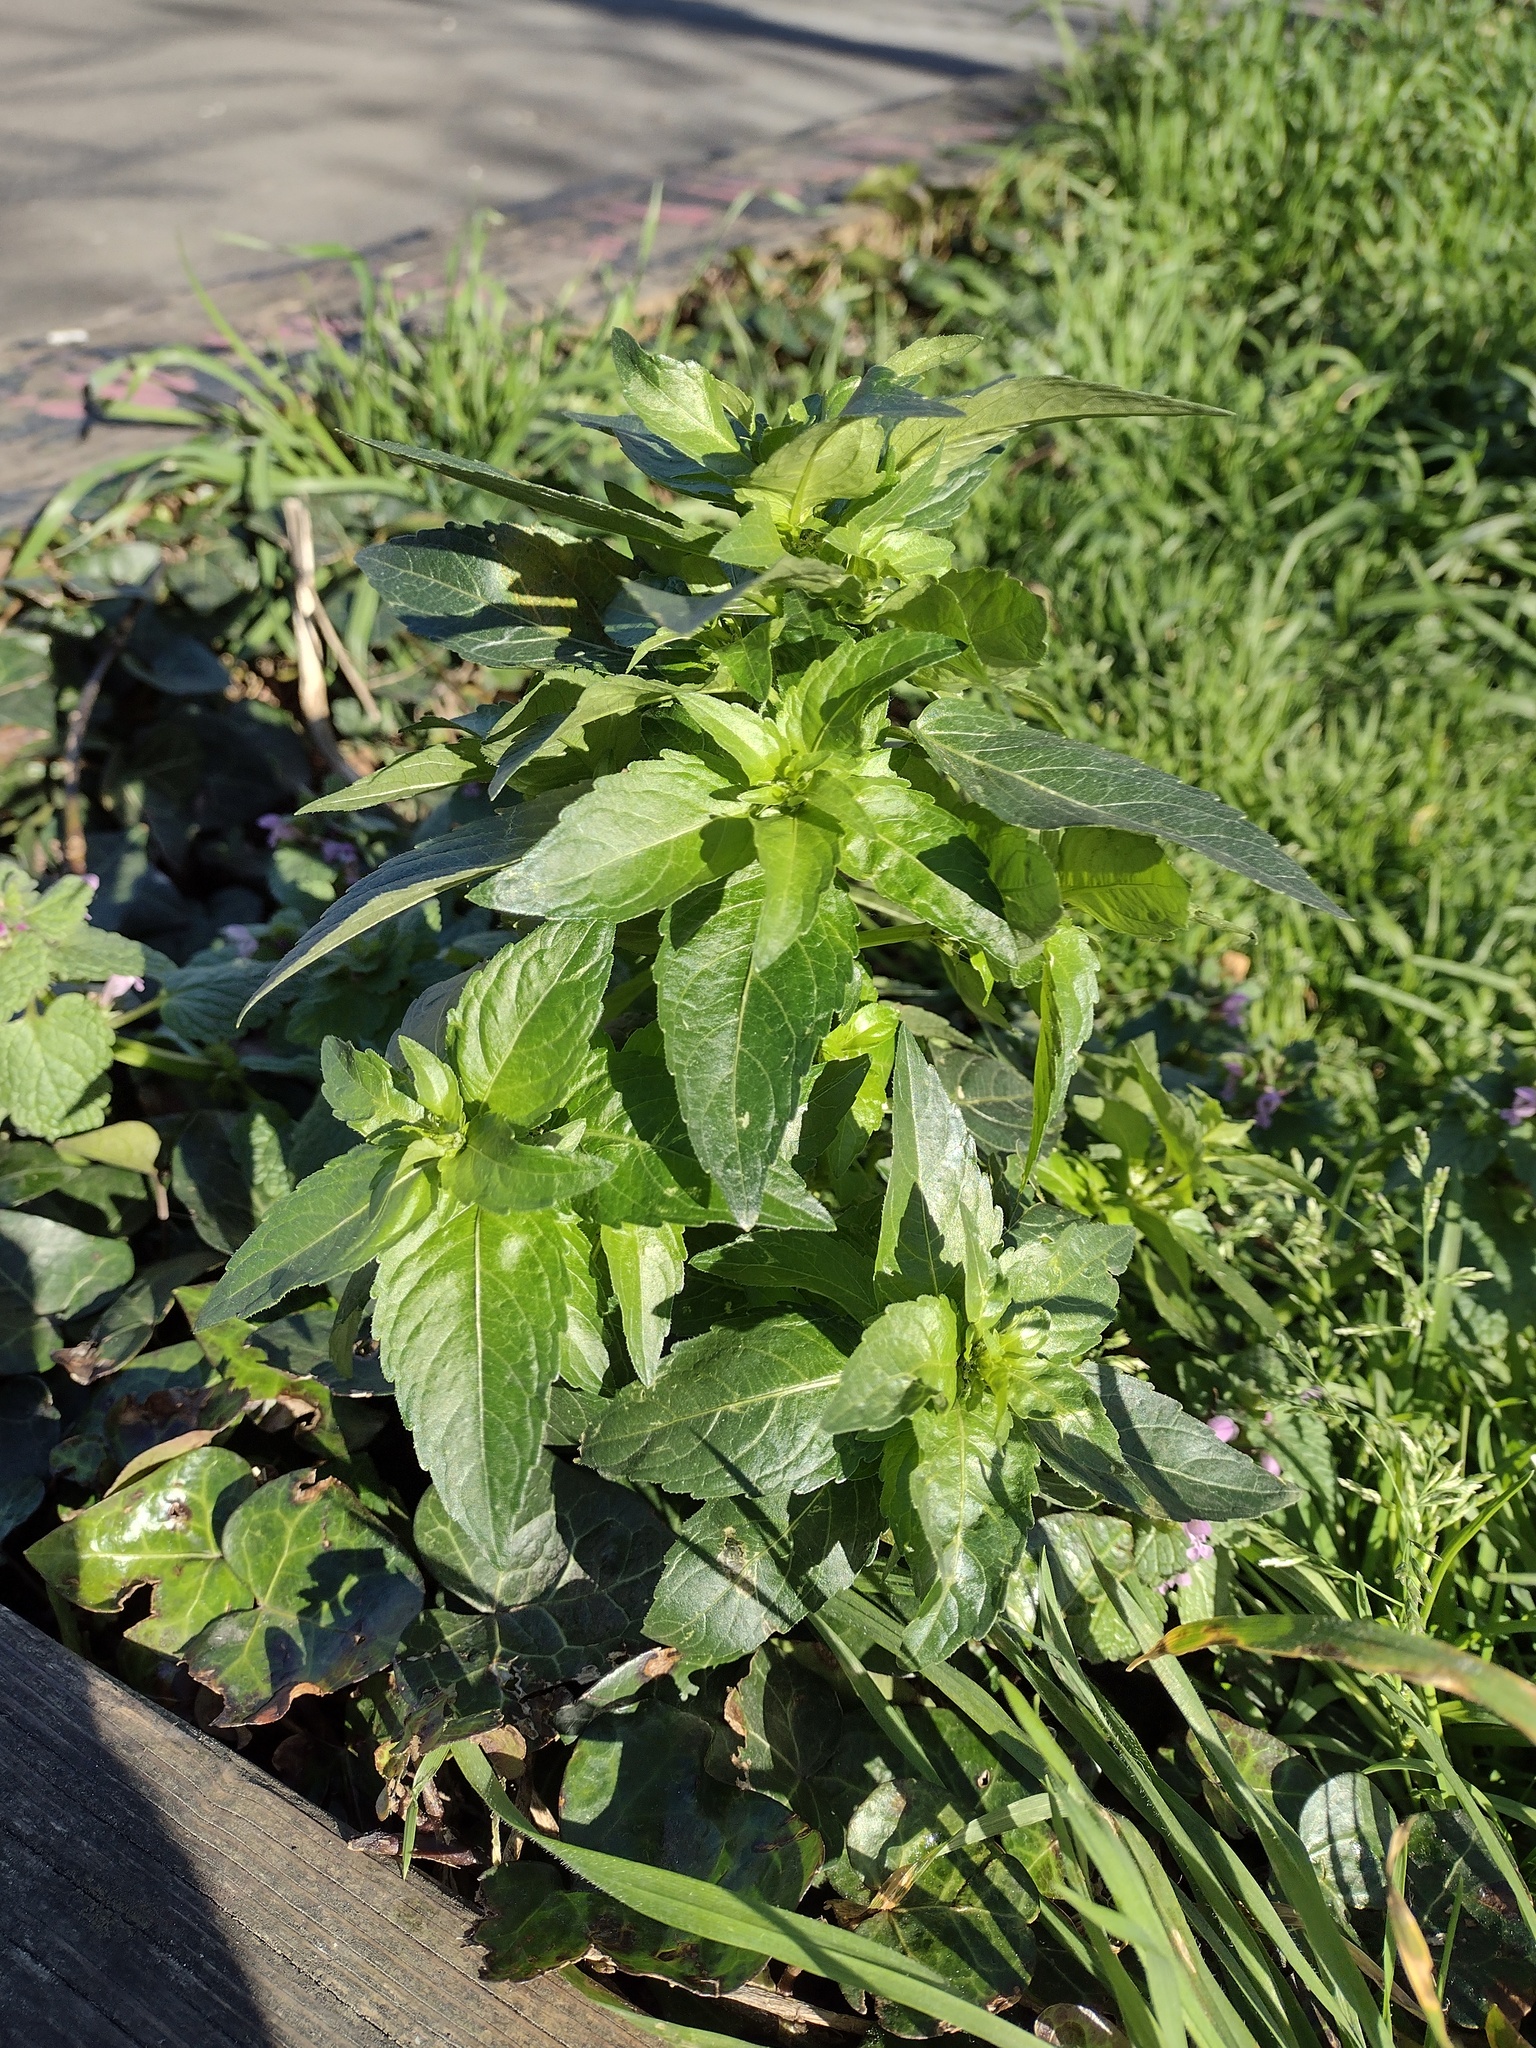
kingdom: Plantae
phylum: Tracheophyta
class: Magnoliopsida
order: Malpighiales
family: Euphorbiaceae
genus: Mercurialis
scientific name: Mercurialis annua
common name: Annual mercury
